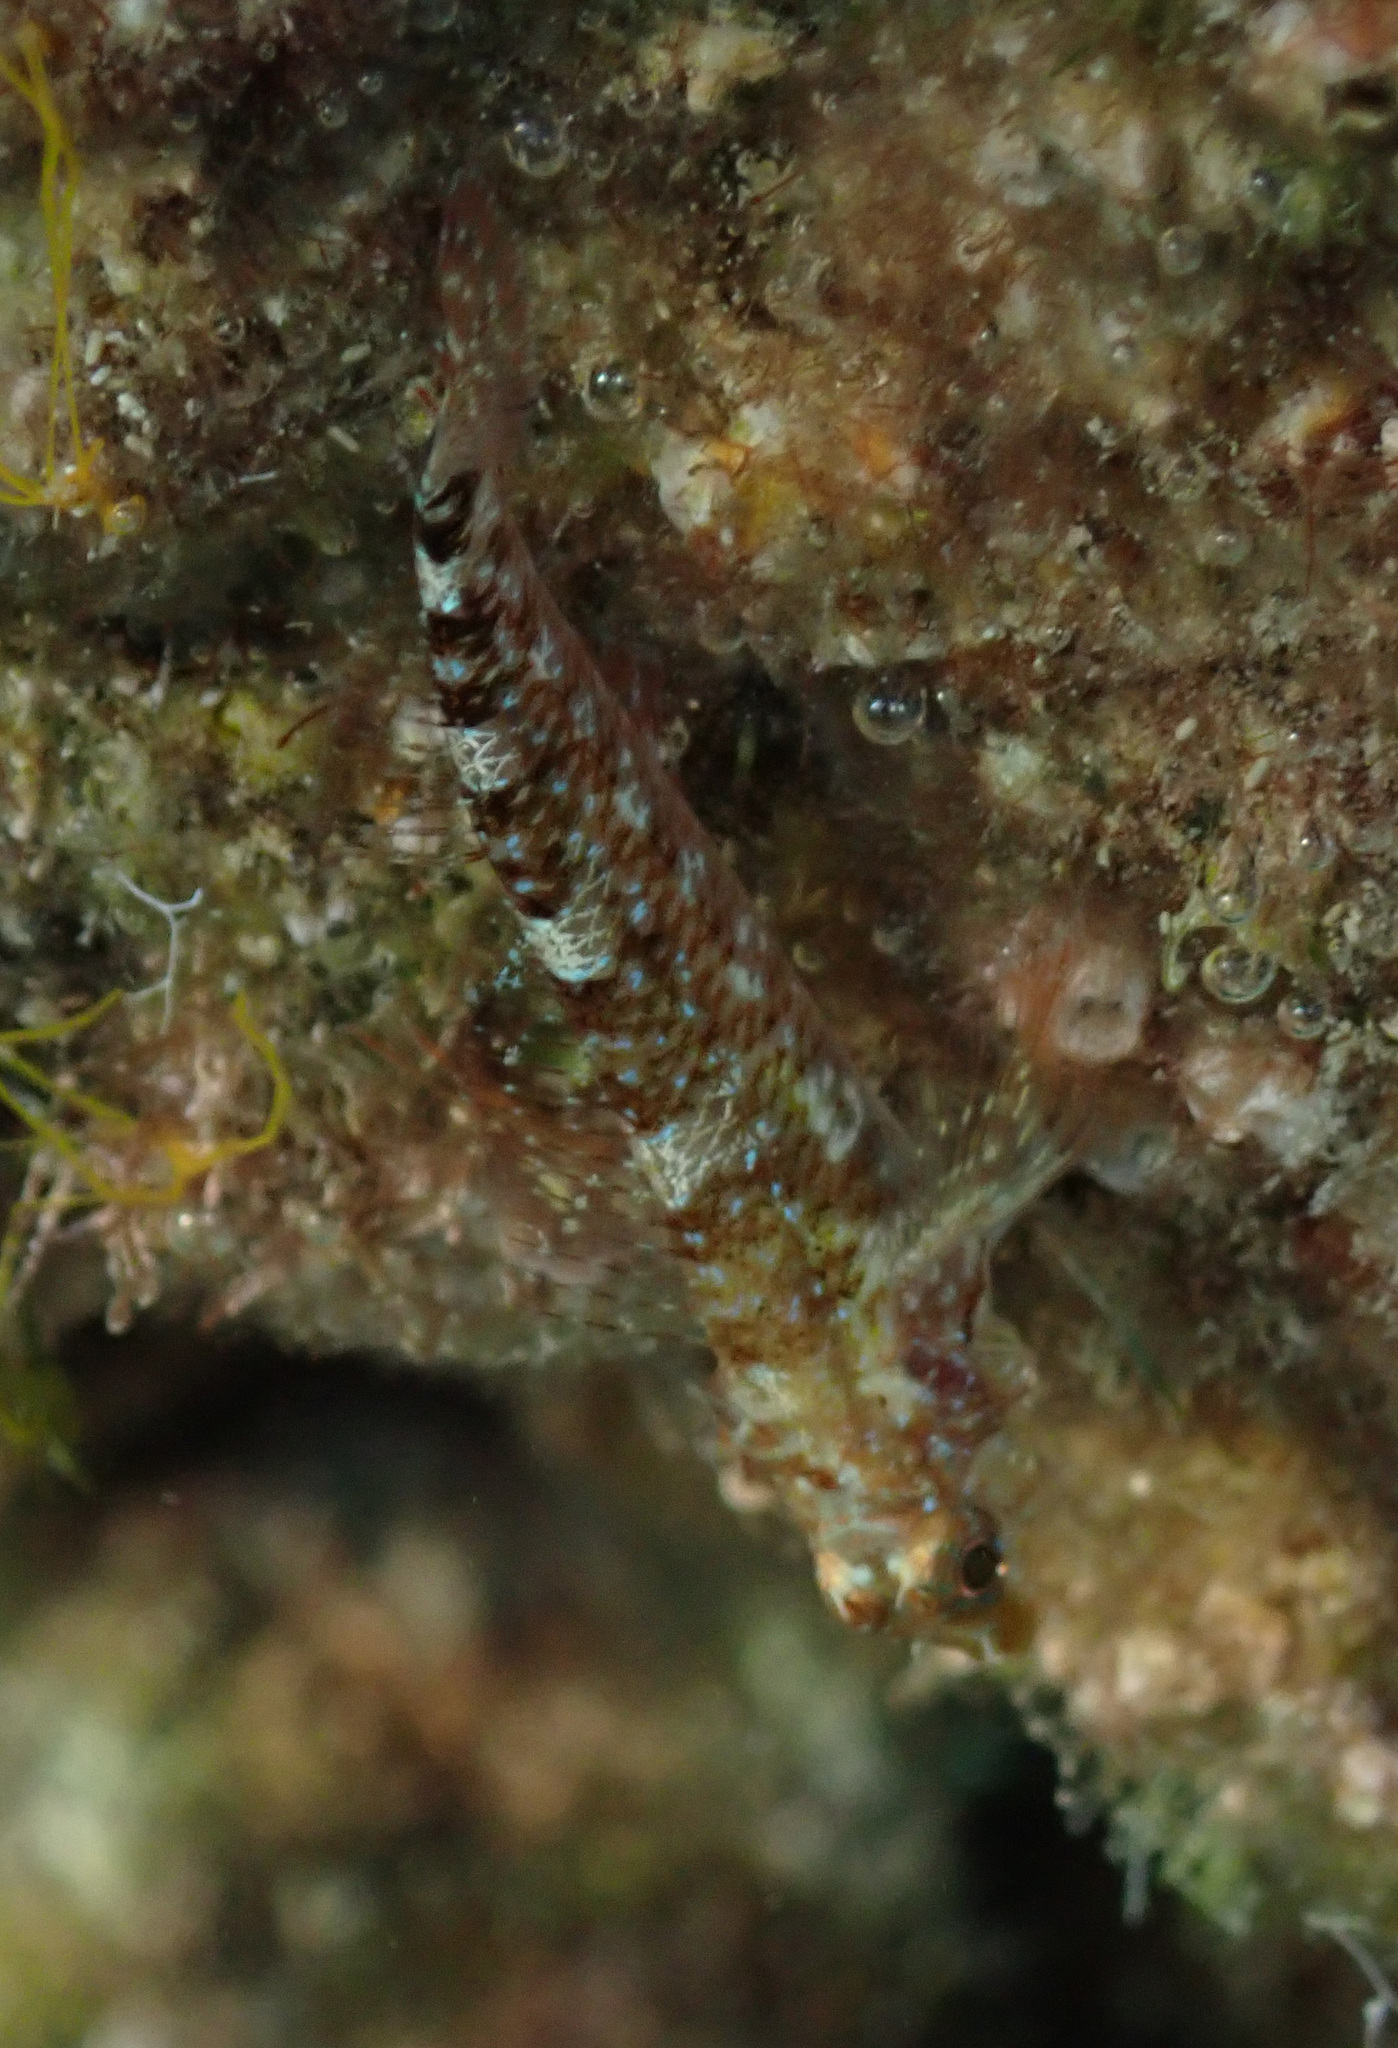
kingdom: Animalia
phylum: Chordata
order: Perciformes
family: Tripterygiidae
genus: Tripterygion
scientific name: Tripterygion tripteronotum
